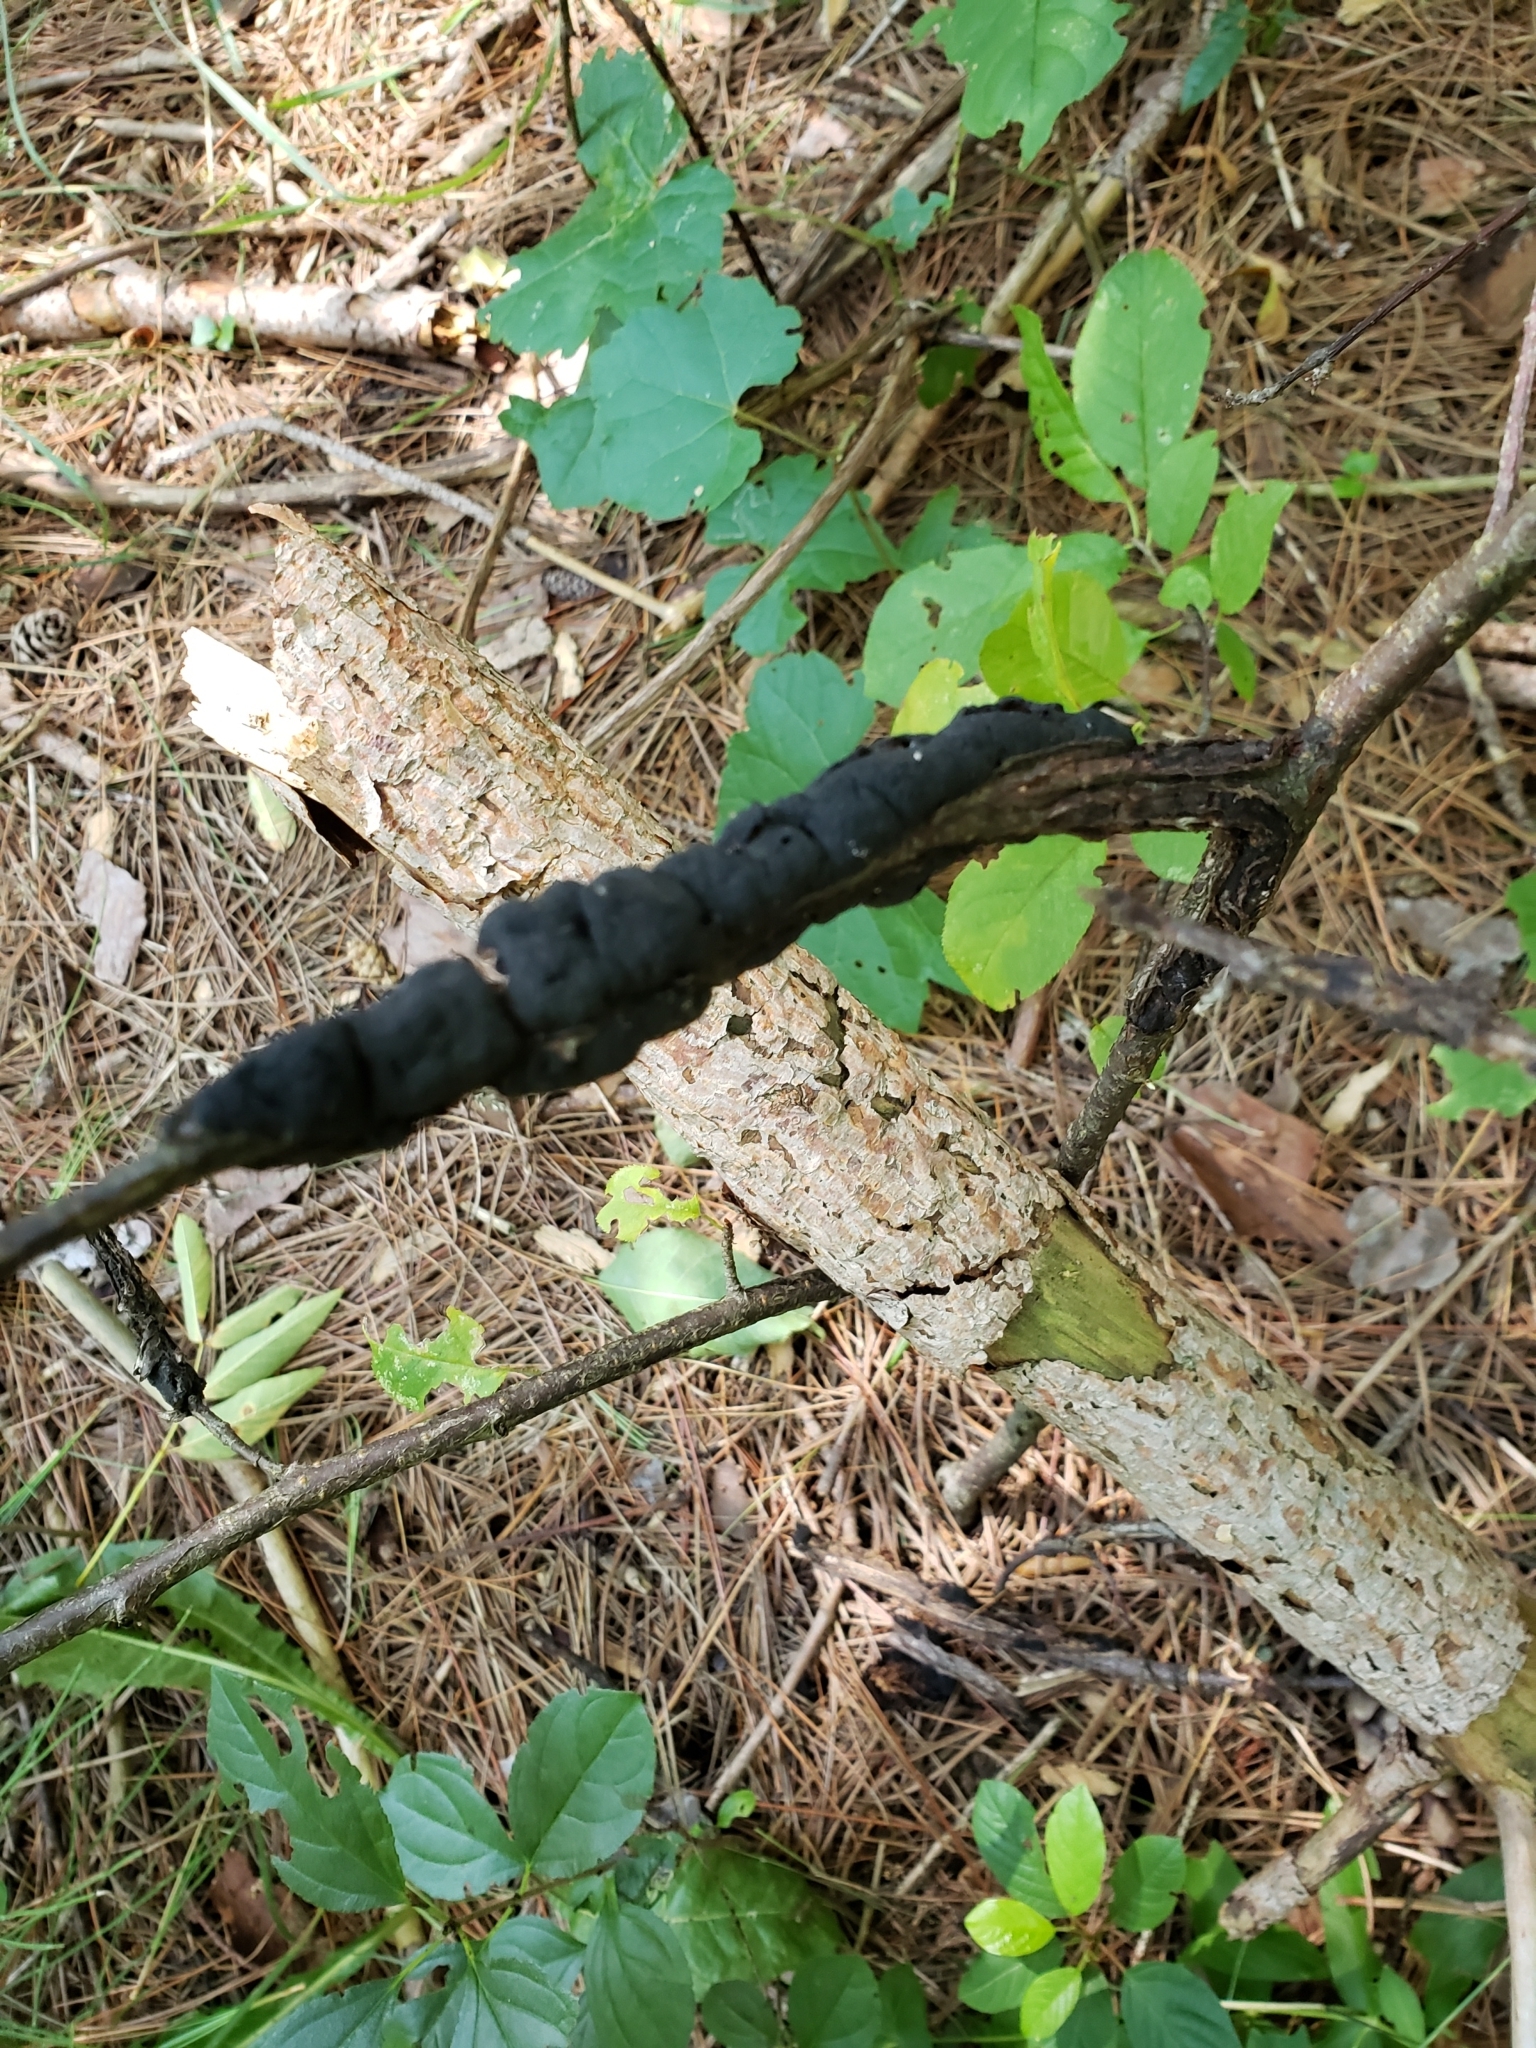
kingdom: Fungi
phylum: Ascomycota
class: Dothideomycetes
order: Venturiales
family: Venturiaceae
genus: Apiosporina
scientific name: Apiosporina morbosa
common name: Black knot
